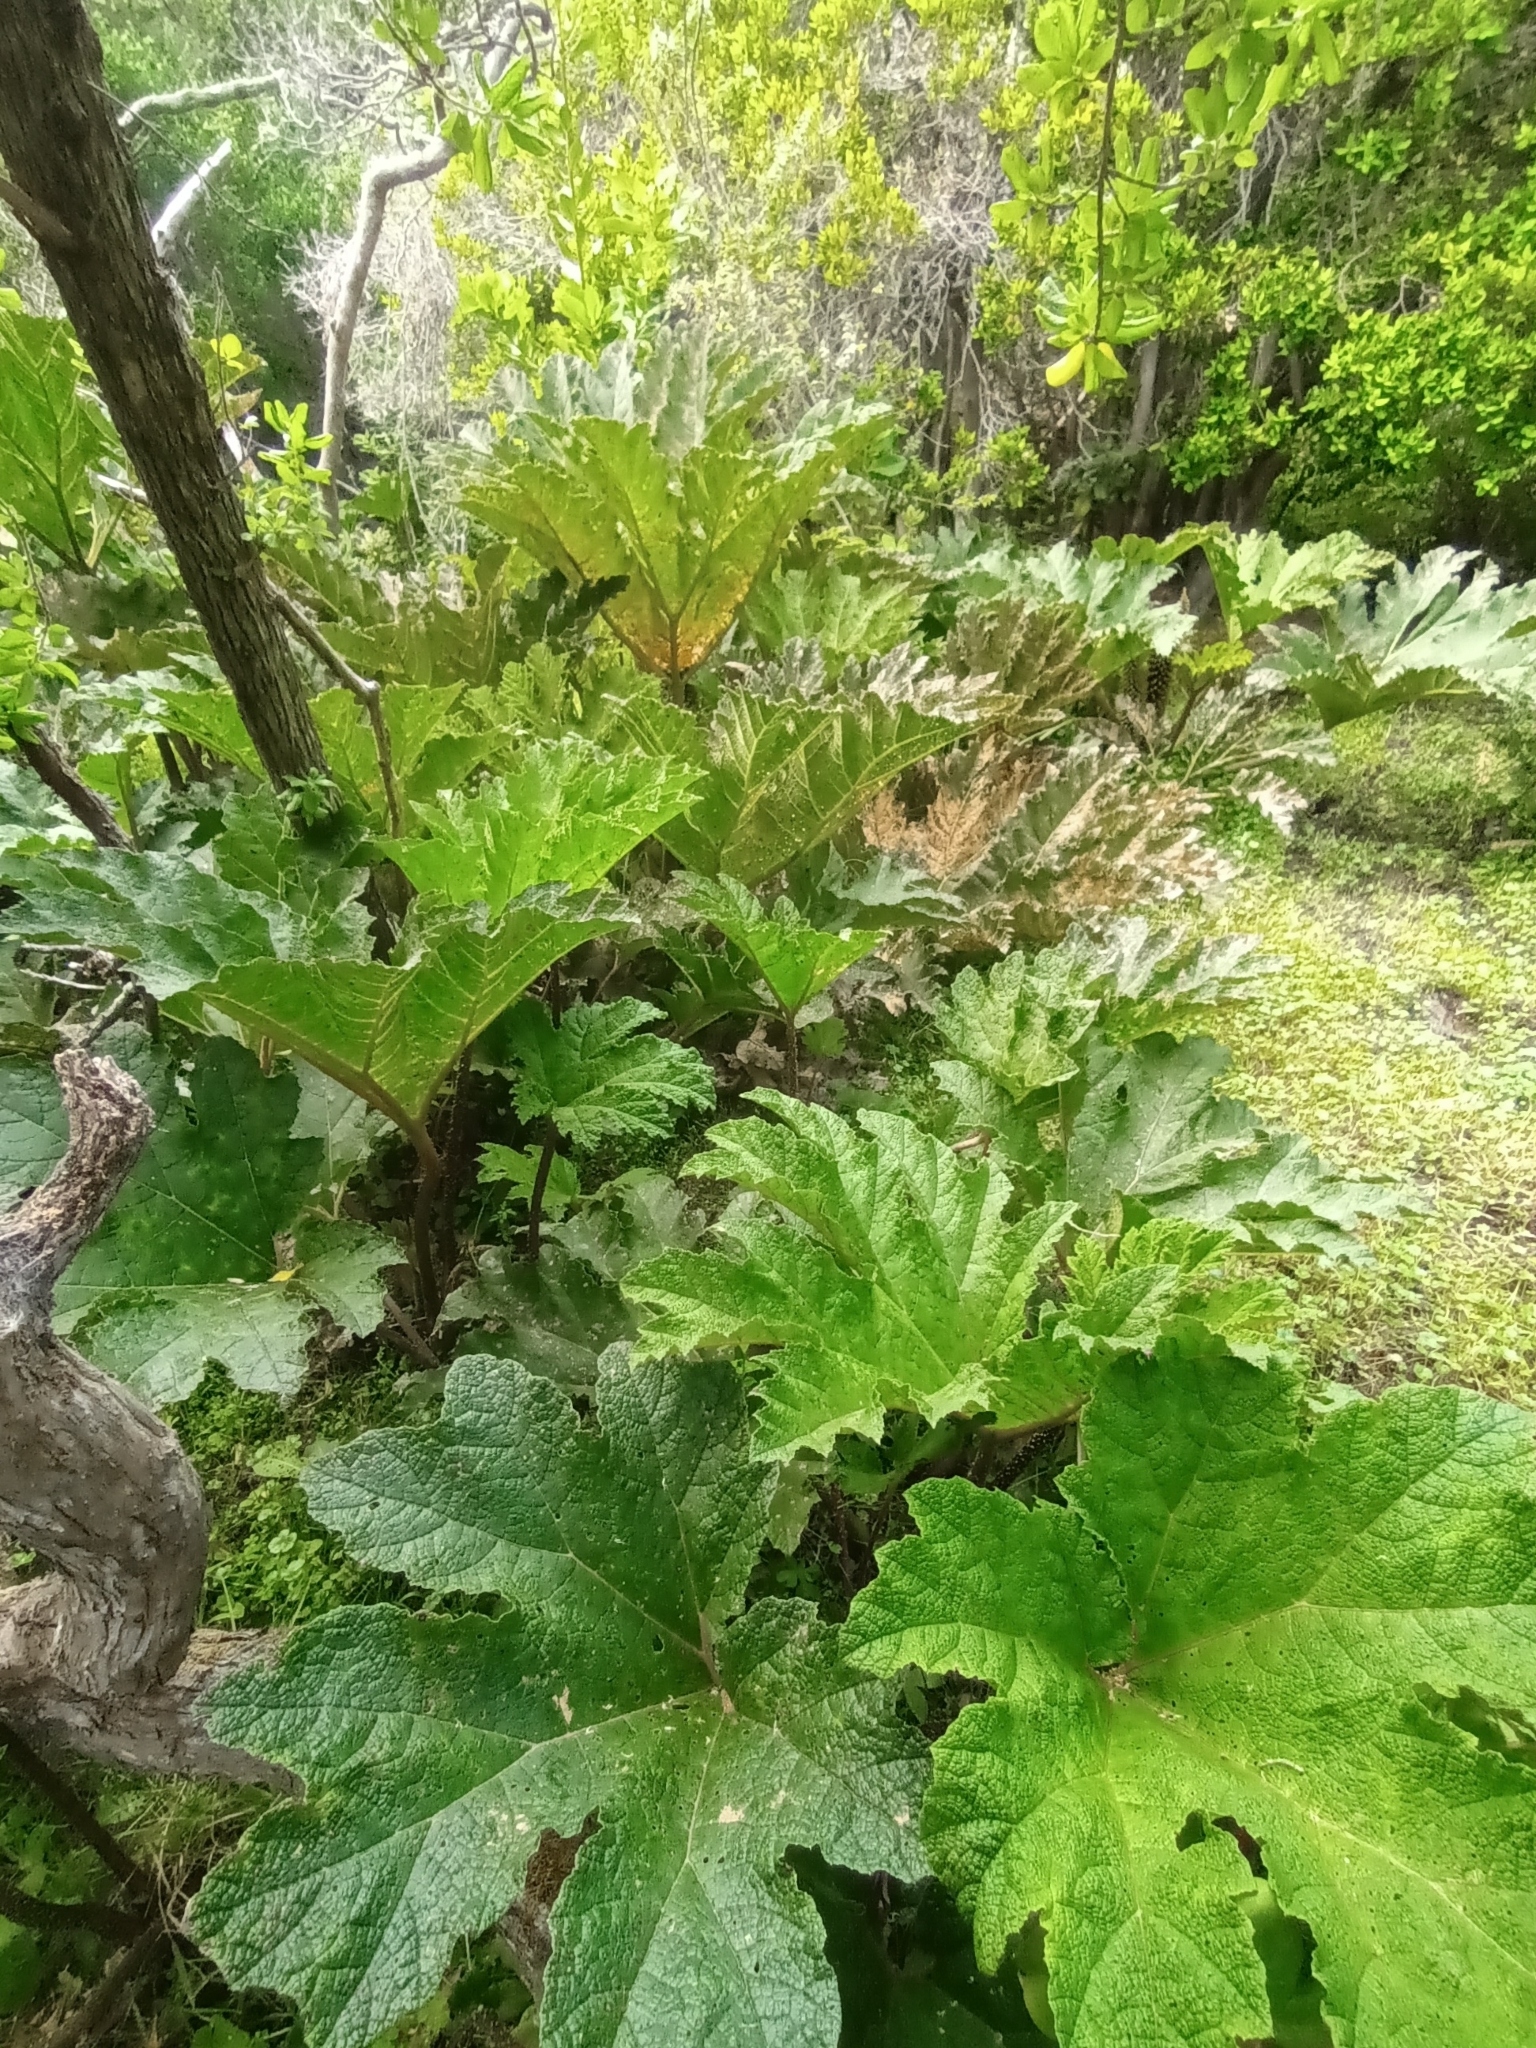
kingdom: Plantae
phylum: Tracheophyta
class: Magnoliopsida
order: Gunnerales
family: Gunneraceae
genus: Gunnera
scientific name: Gunnera tinctoria
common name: Giant-rhubarb
